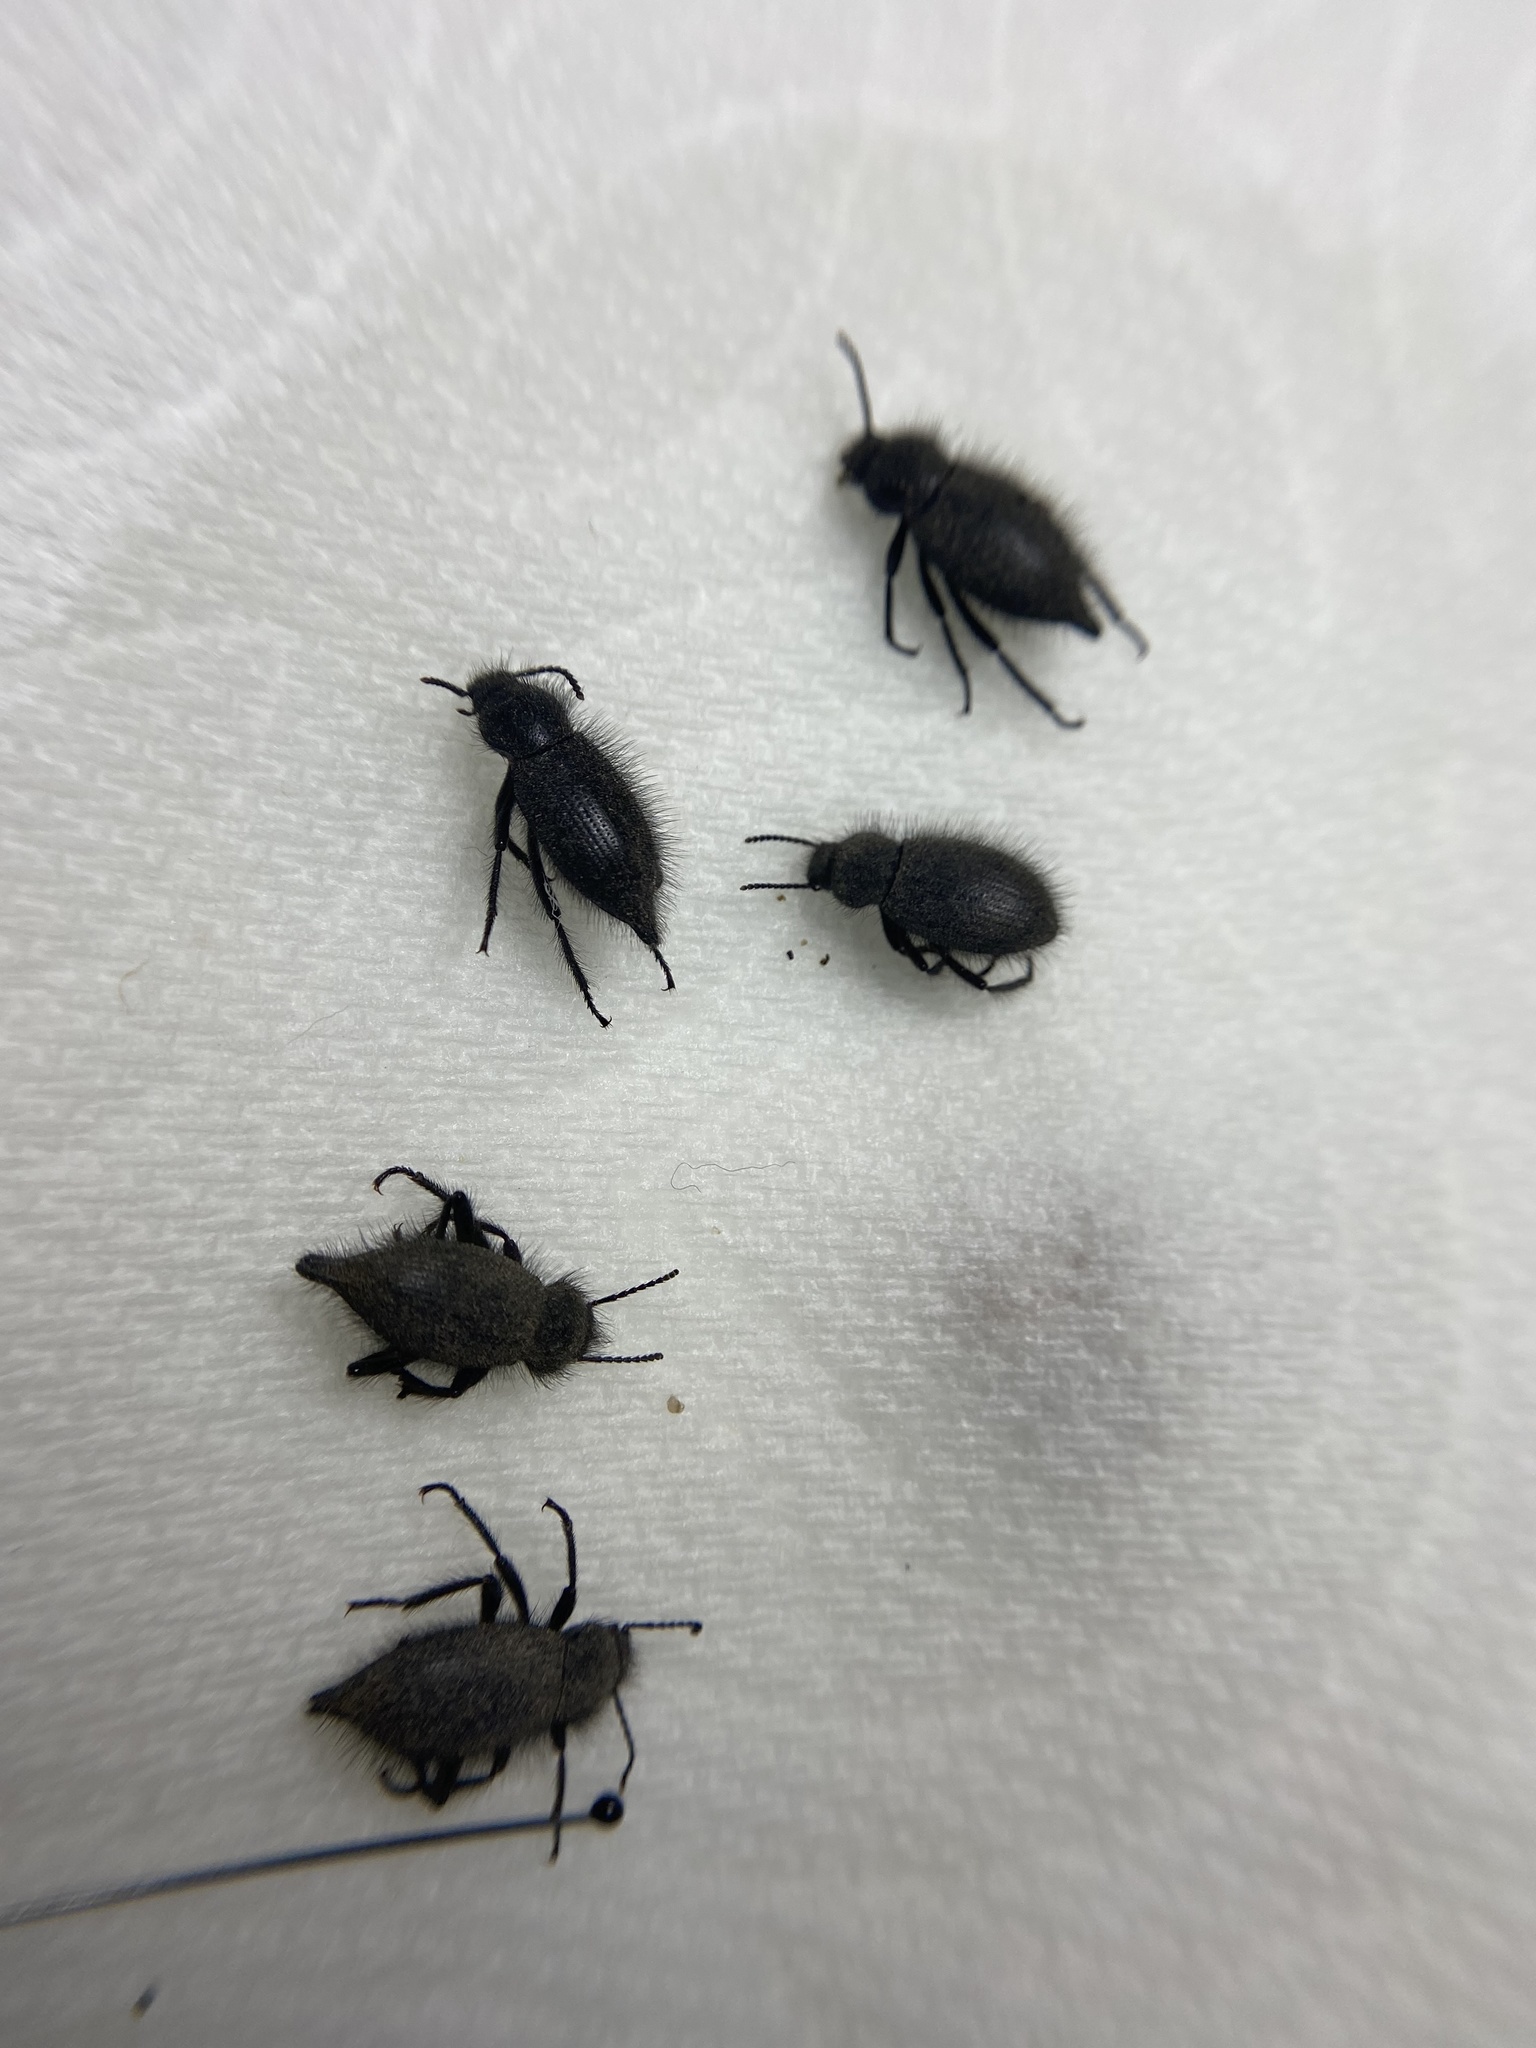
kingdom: Animalia
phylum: Arthropoda
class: Insecta
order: Coleoptera
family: Tenebrionidae
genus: Eleodes
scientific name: Eleodes tribulus
